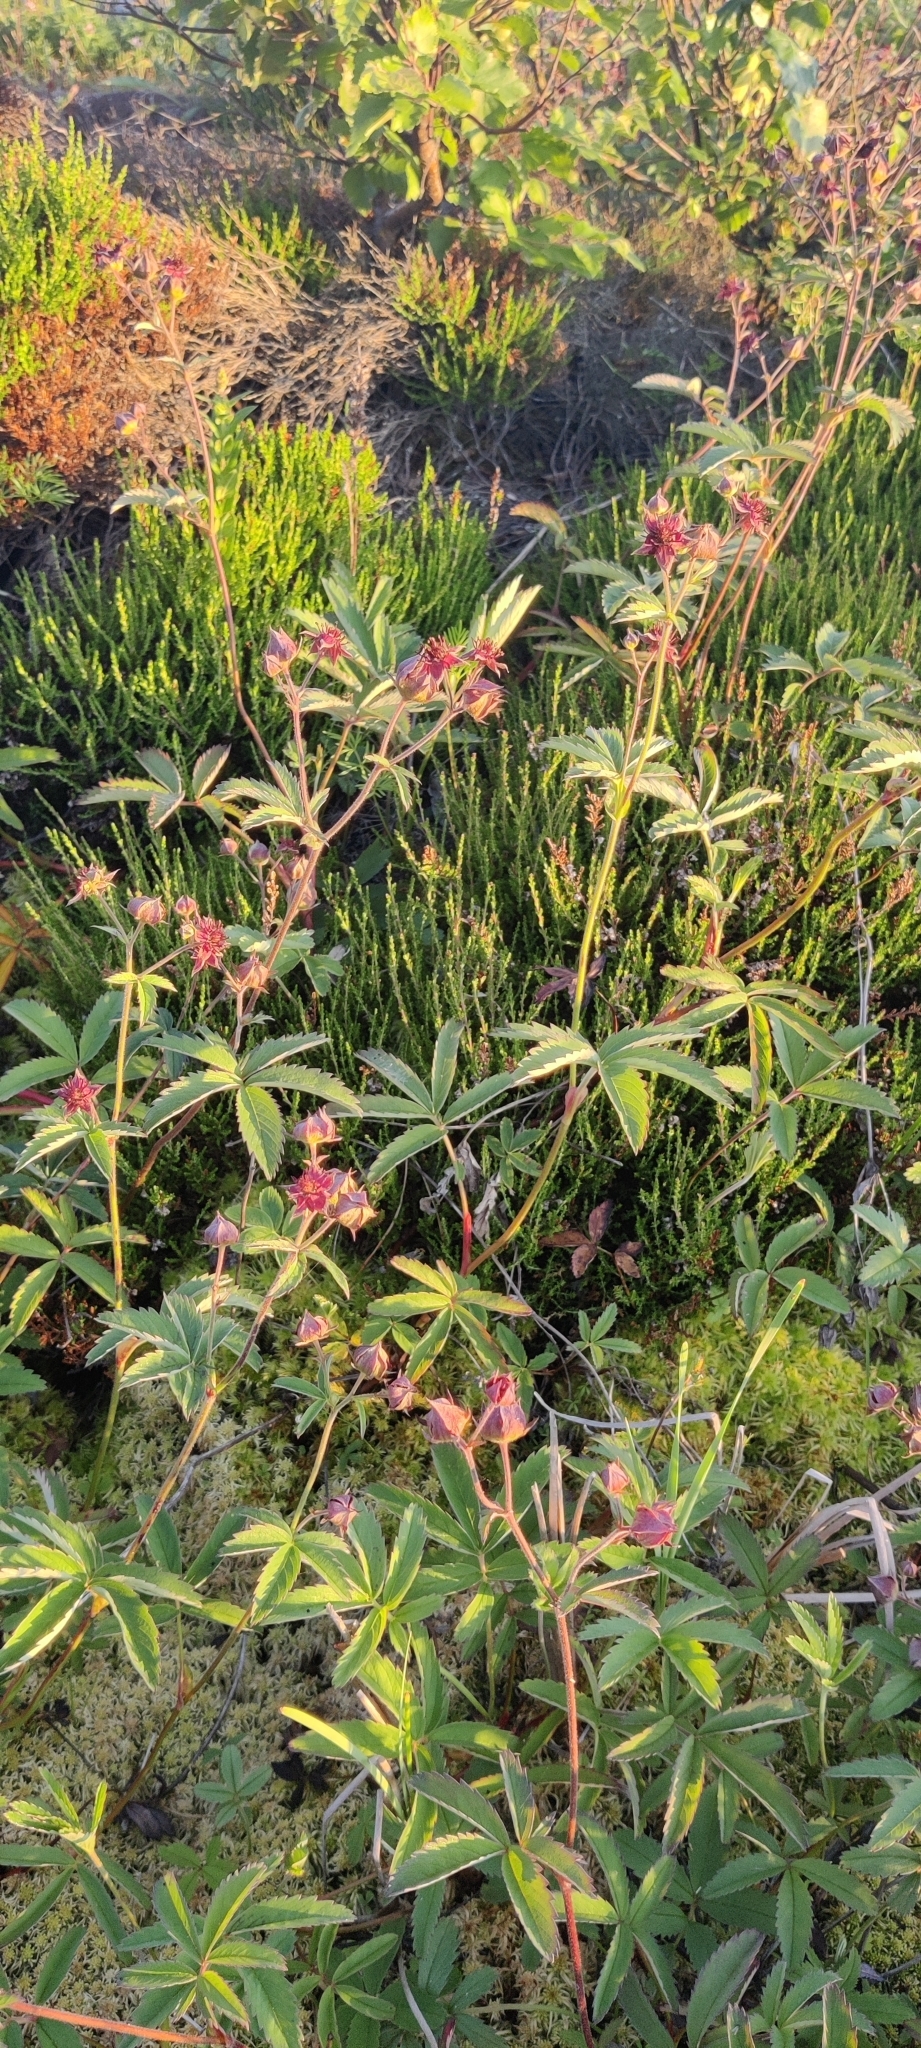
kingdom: Plantae
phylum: Tracheophyta
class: Magnoliopsida
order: Rosales
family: Rosaceae
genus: Comarum
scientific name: Comarum palustre
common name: Marsh cinquefoil
